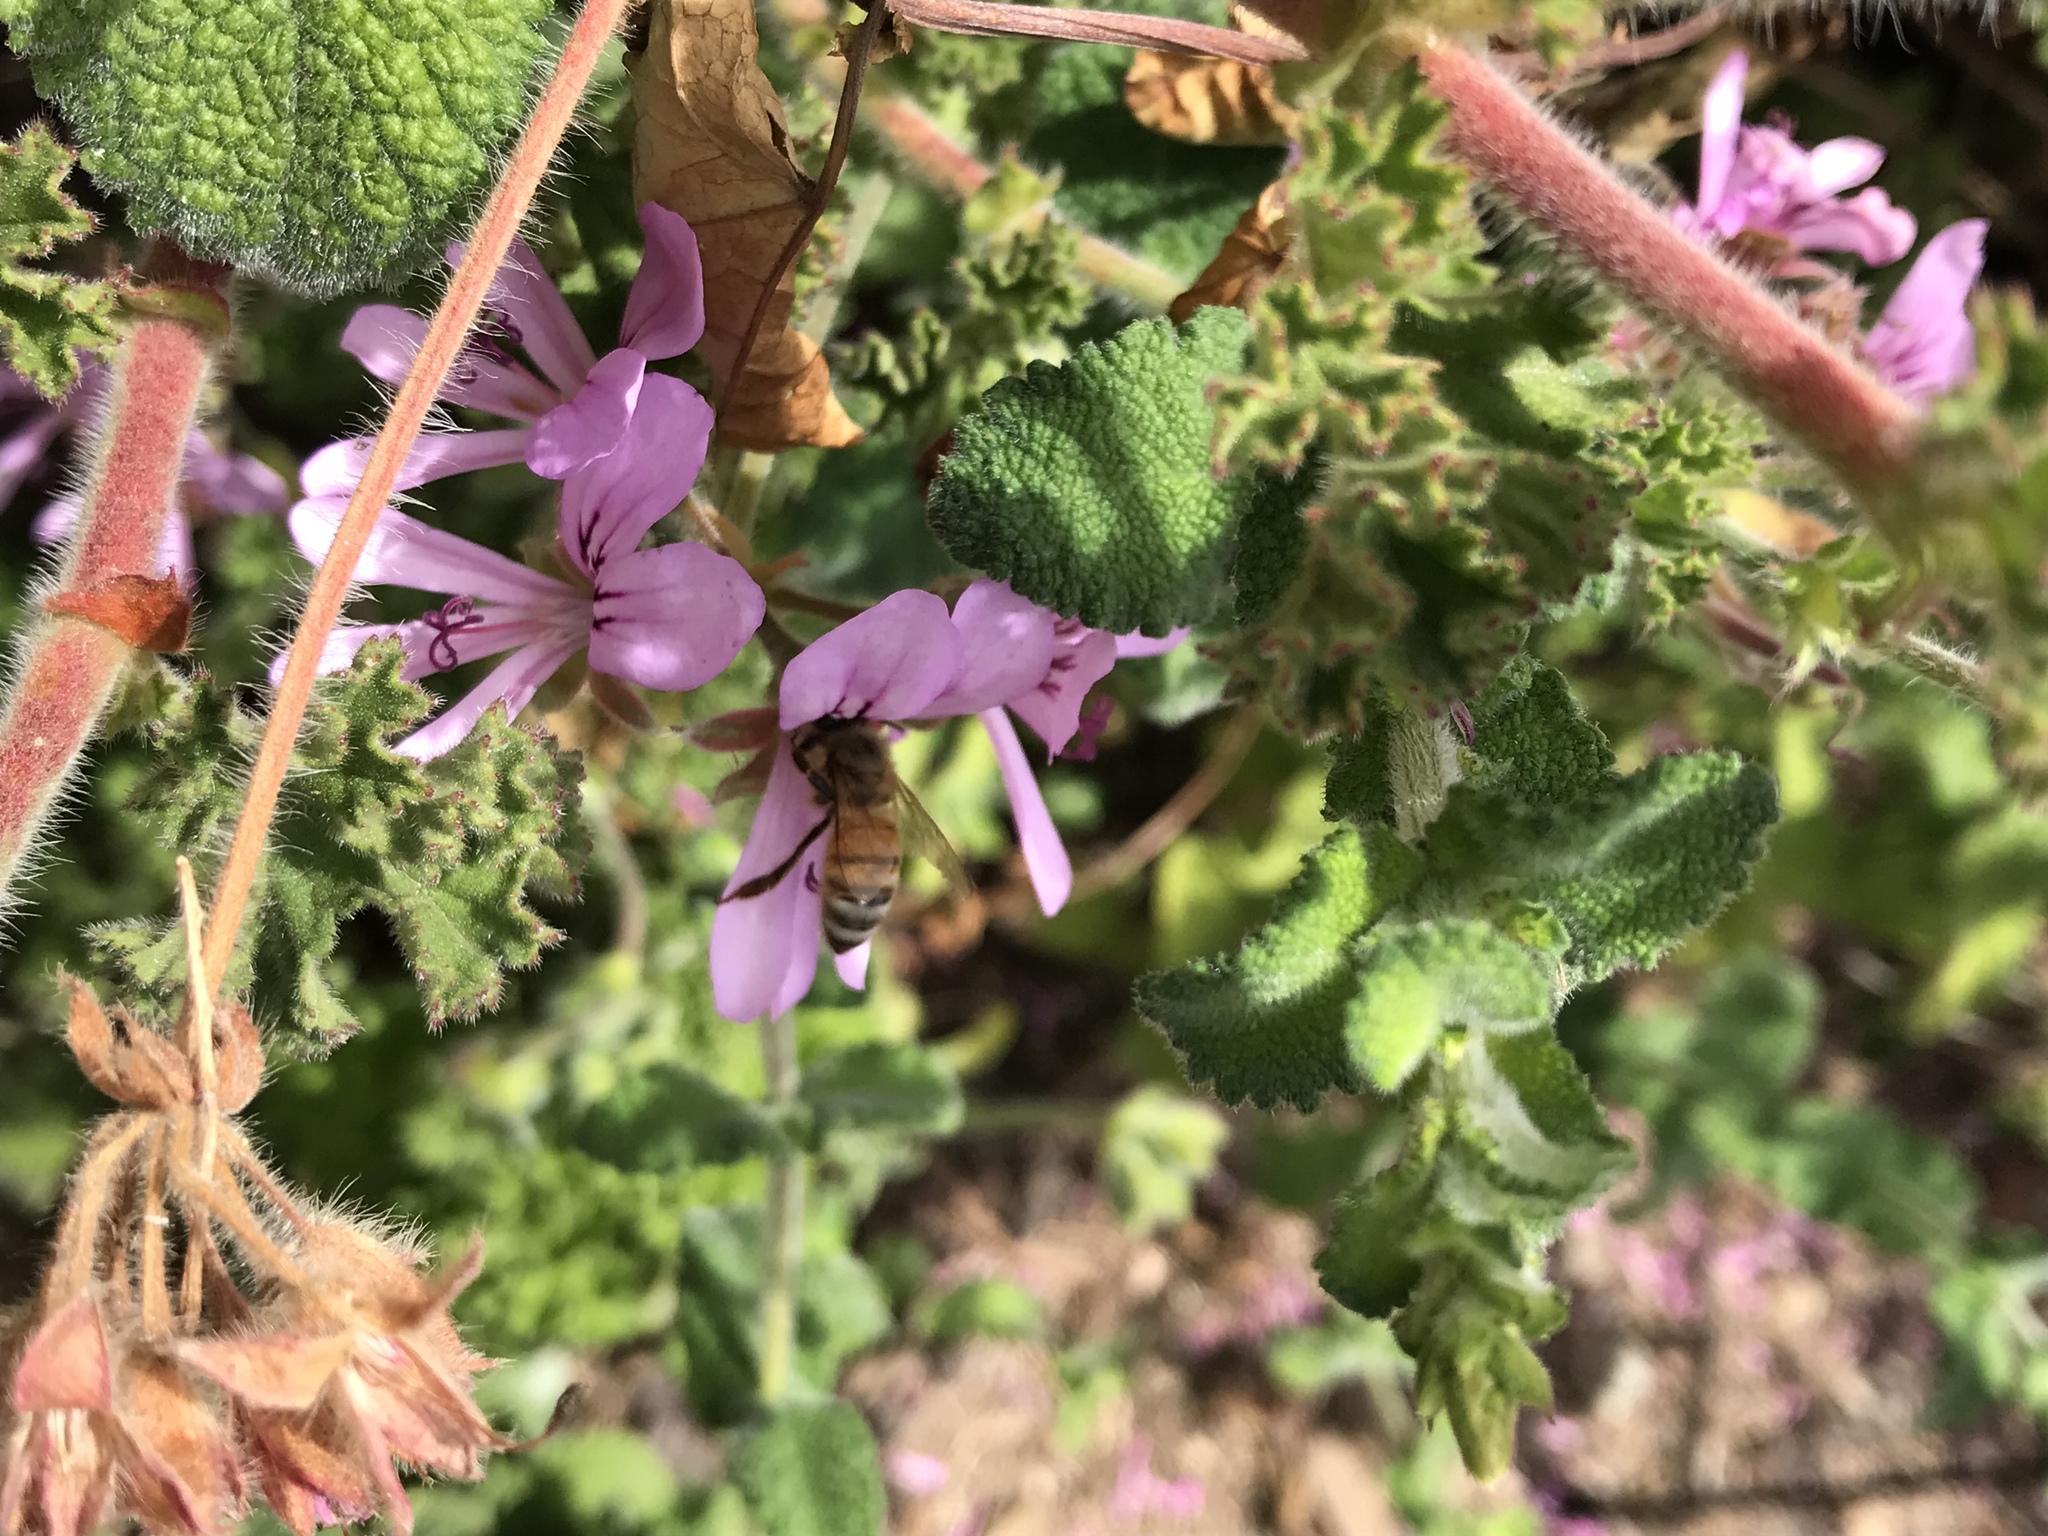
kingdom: Animalia
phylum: Arthropoda
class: Insecta
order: Hymenoptera
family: Apidae
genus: Apis
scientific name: Apis mellifera
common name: Honey bee
